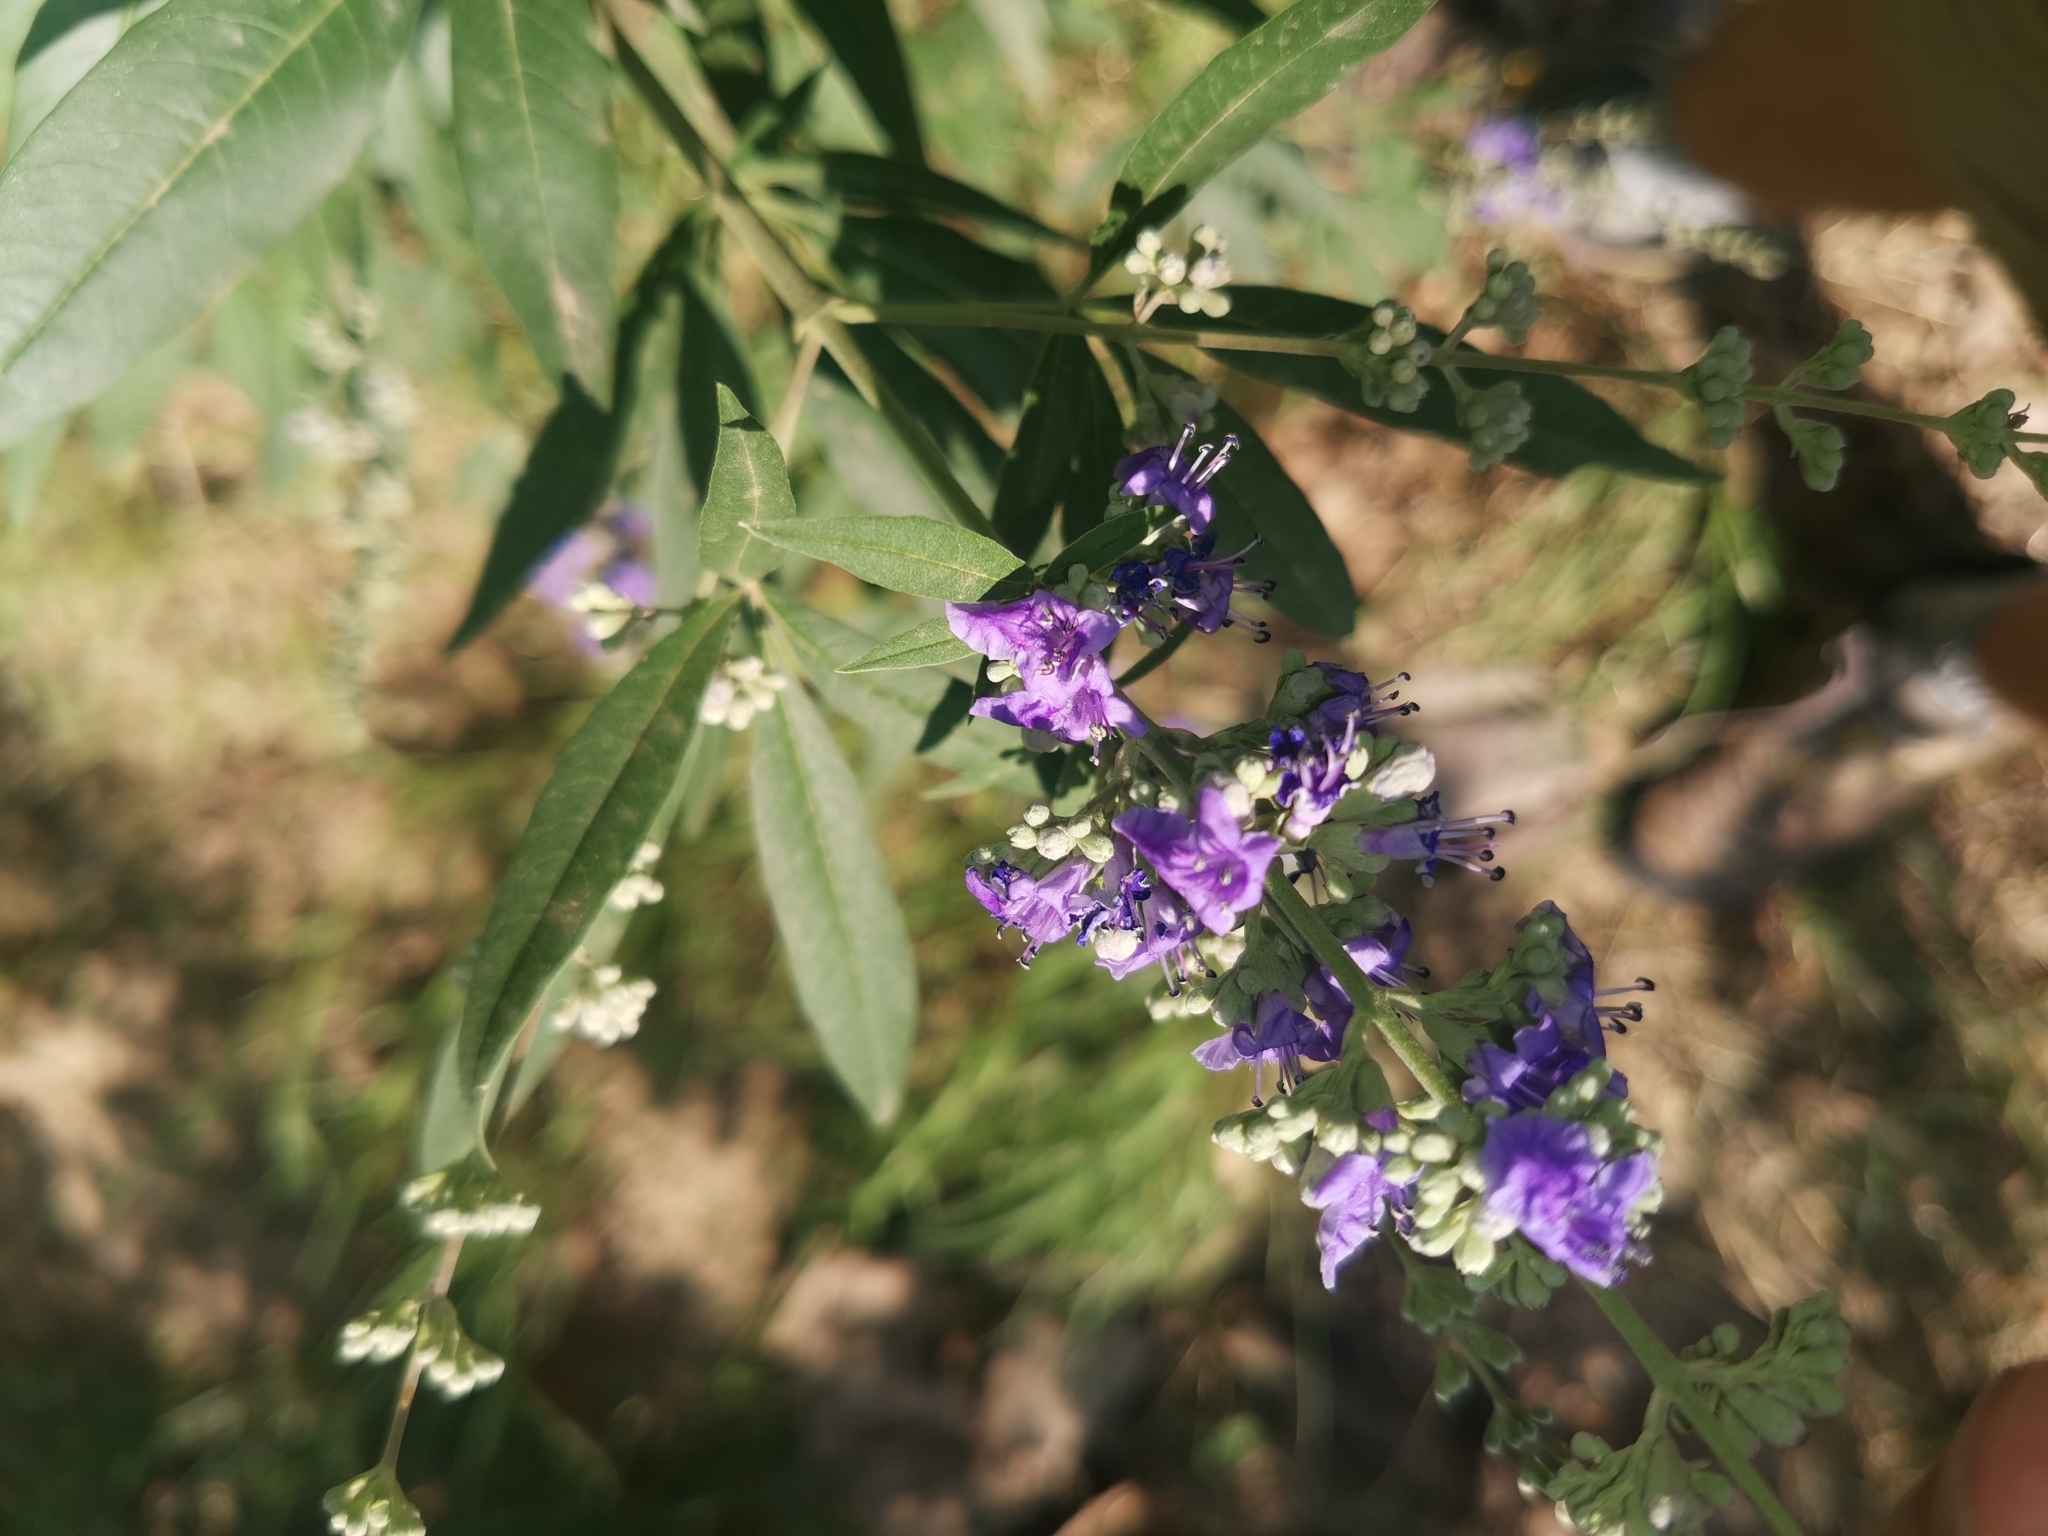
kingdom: Plantae
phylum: Tracheophyta
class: Magnoliopsida
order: Lamiales
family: Lamiaceae
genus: Vitex
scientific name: Vitex agnus-castus
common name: Chasteberry
